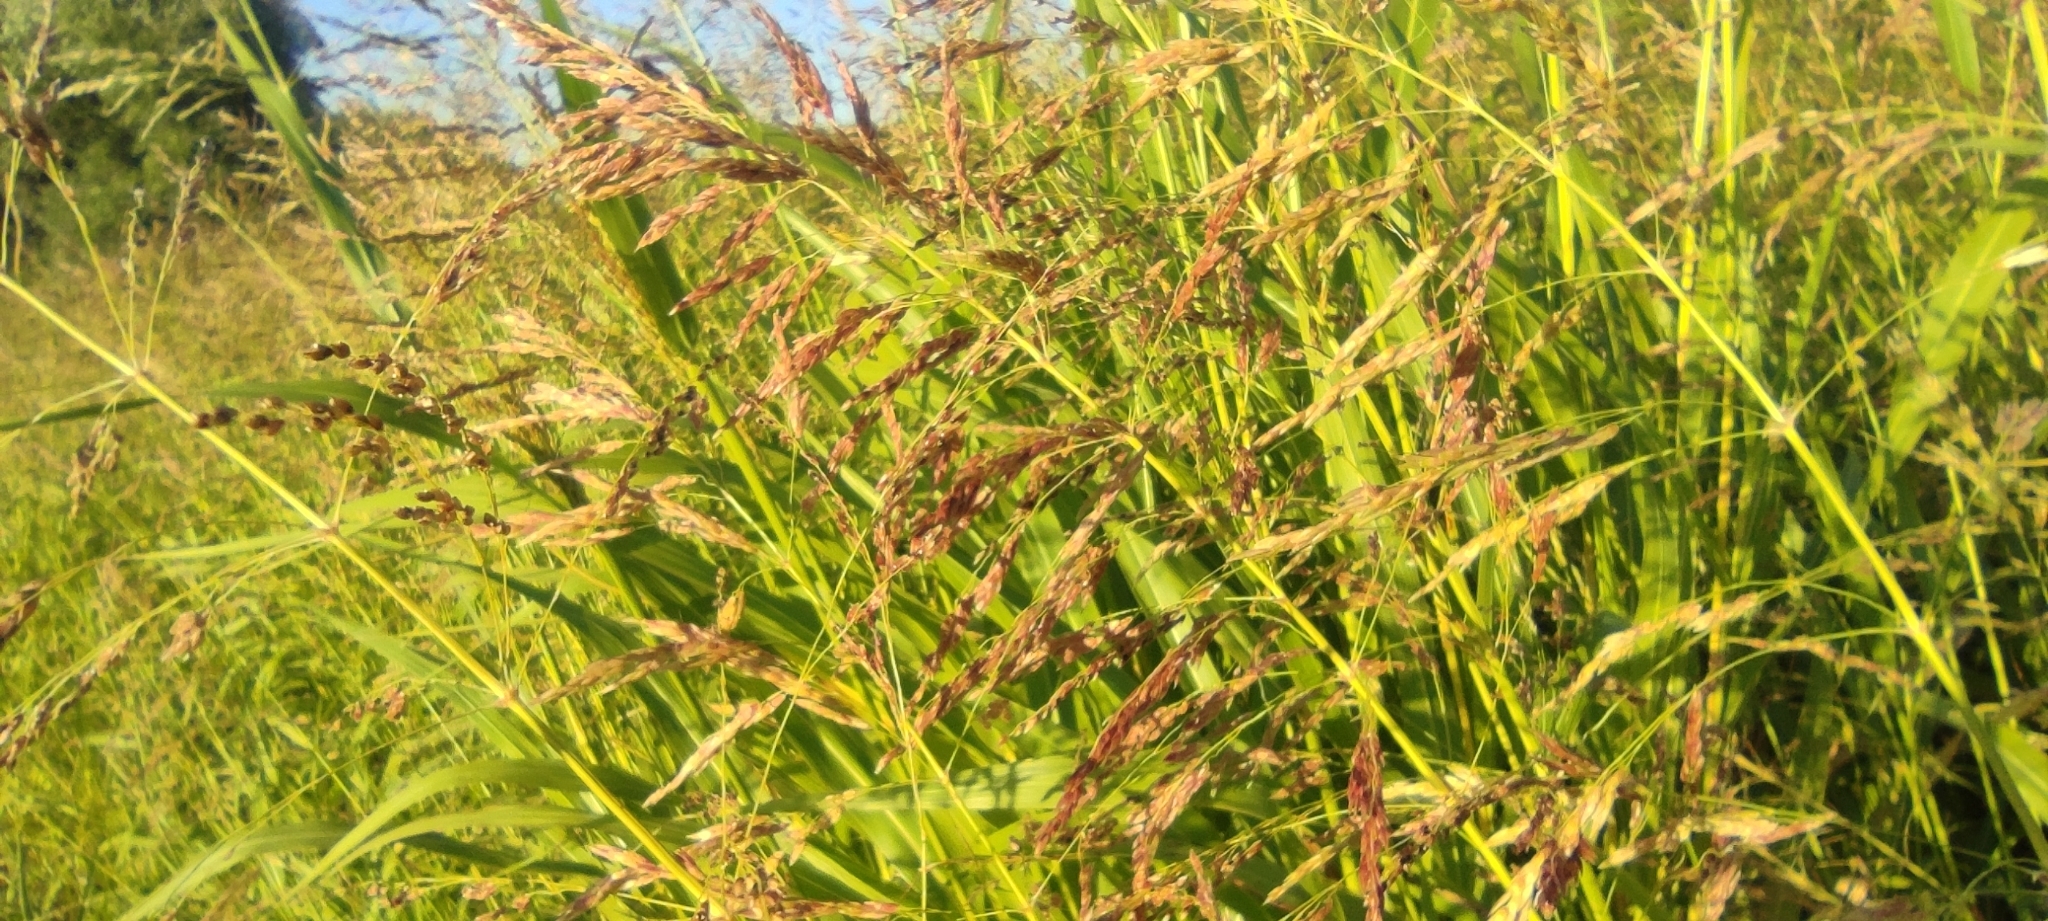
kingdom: Plantae
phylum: Tracheophyta
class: Liliopsida
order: Poales
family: Poaceae
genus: Sorghum
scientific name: Sorghum halepense
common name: Johnson-grass
